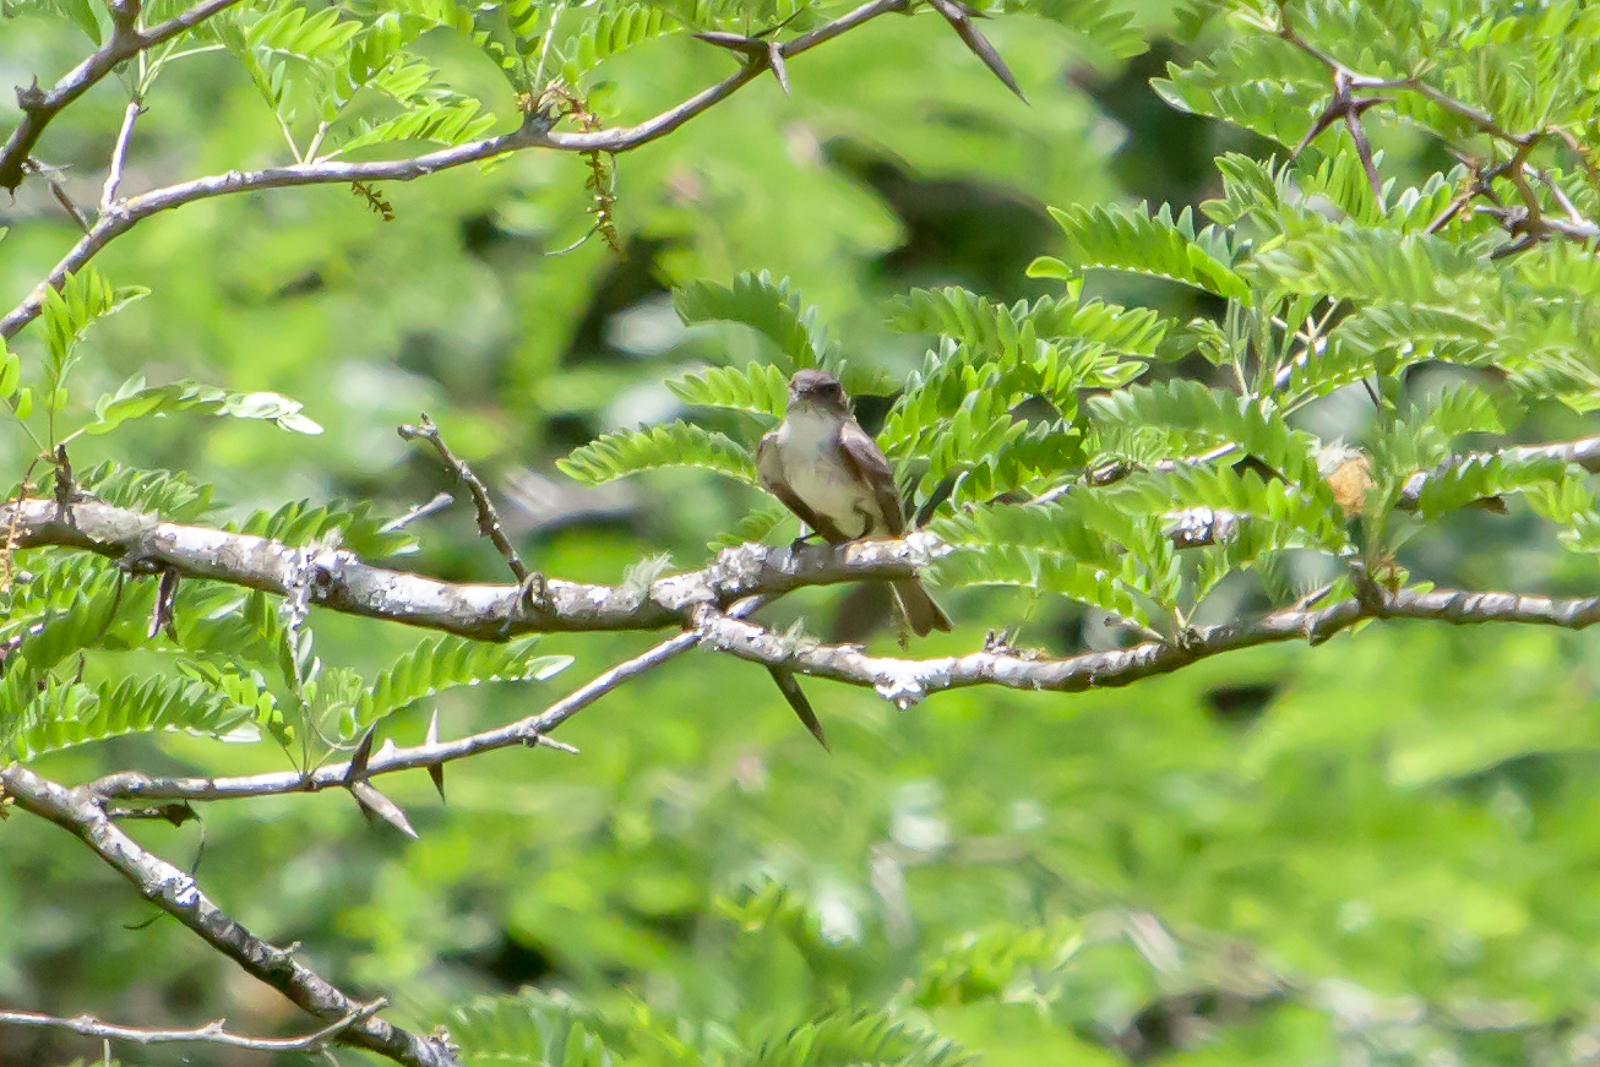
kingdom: Animalia
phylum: Chordata
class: Aves
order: Passeriformes
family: Tyrannidae
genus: Sayornis
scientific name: Sayornis phoebe
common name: Eastern phoebe
